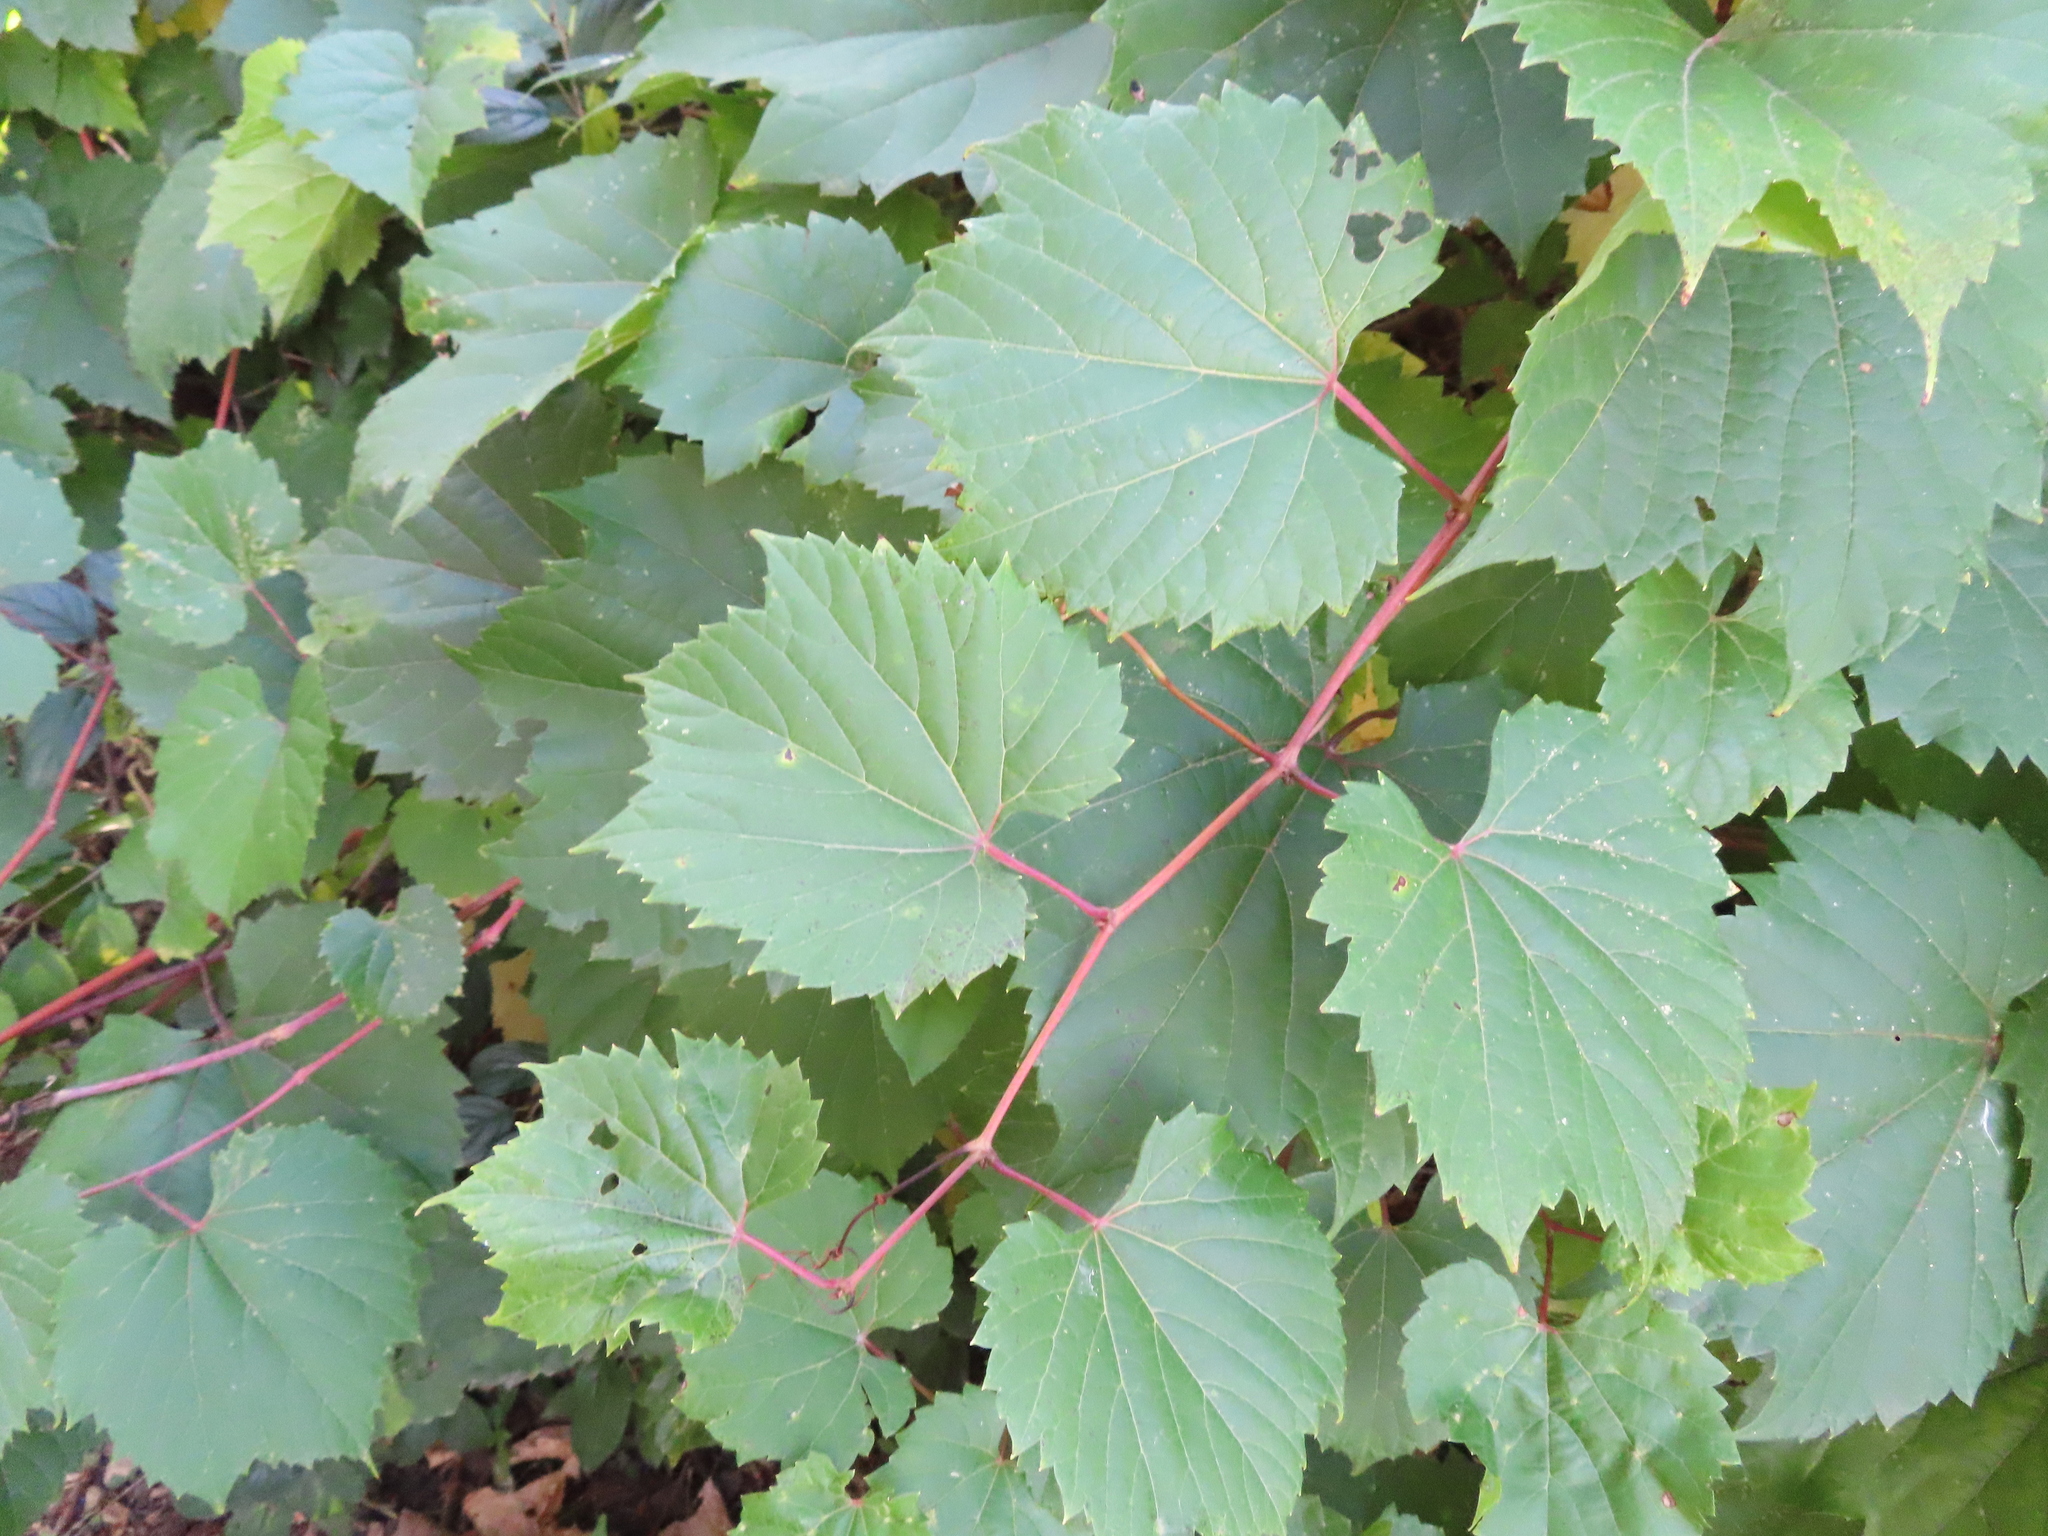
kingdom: Plantae
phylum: Tracheophyta
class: Magnoliopsida
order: Vitales
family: Vitaceae
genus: Vitis
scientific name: Vitis riparia
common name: Frost grape
